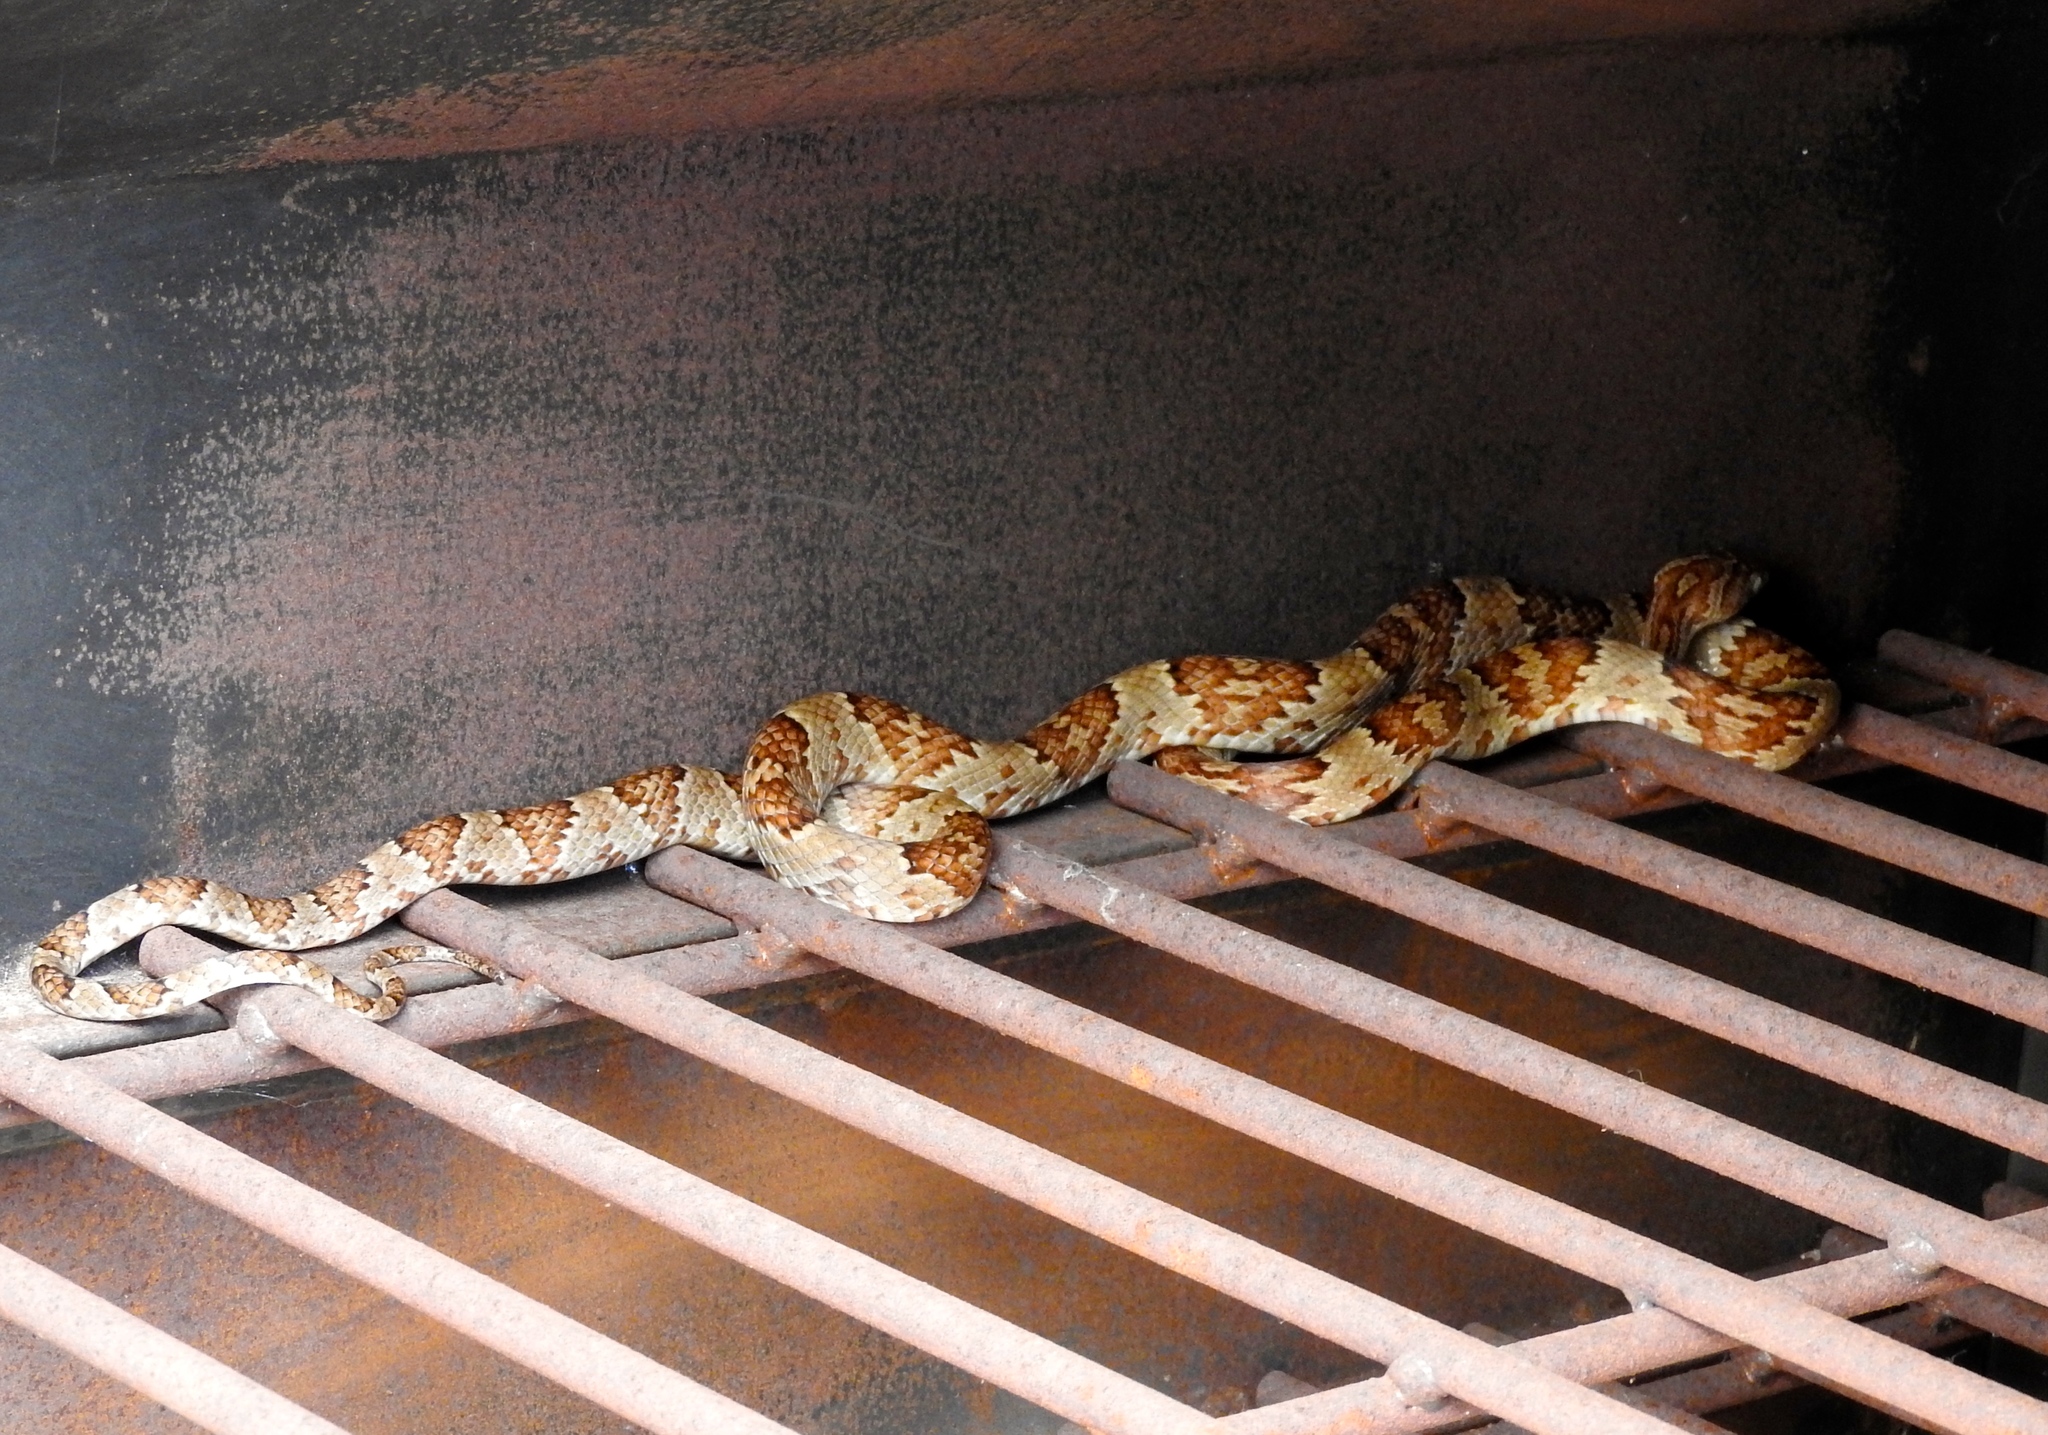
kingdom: Animalia
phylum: Chordata
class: Squamata
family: Colubridae
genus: Trimorphodon
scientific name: Trimorphodon paucimaculatus
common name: Sinaloan lyresnake
